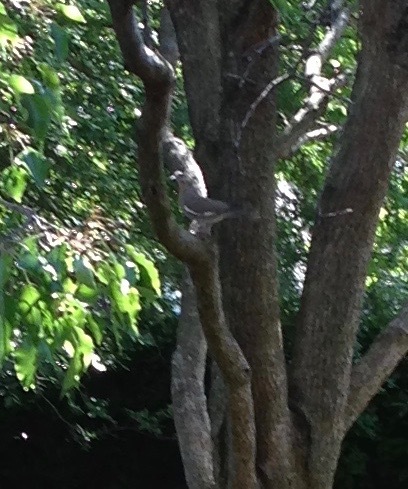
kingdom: Animalia
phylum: Chordata
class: Aves
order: Columbiformes
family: Columbidae
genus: Zenaida
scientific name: Zenaida asiatica
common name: White-winged dove
